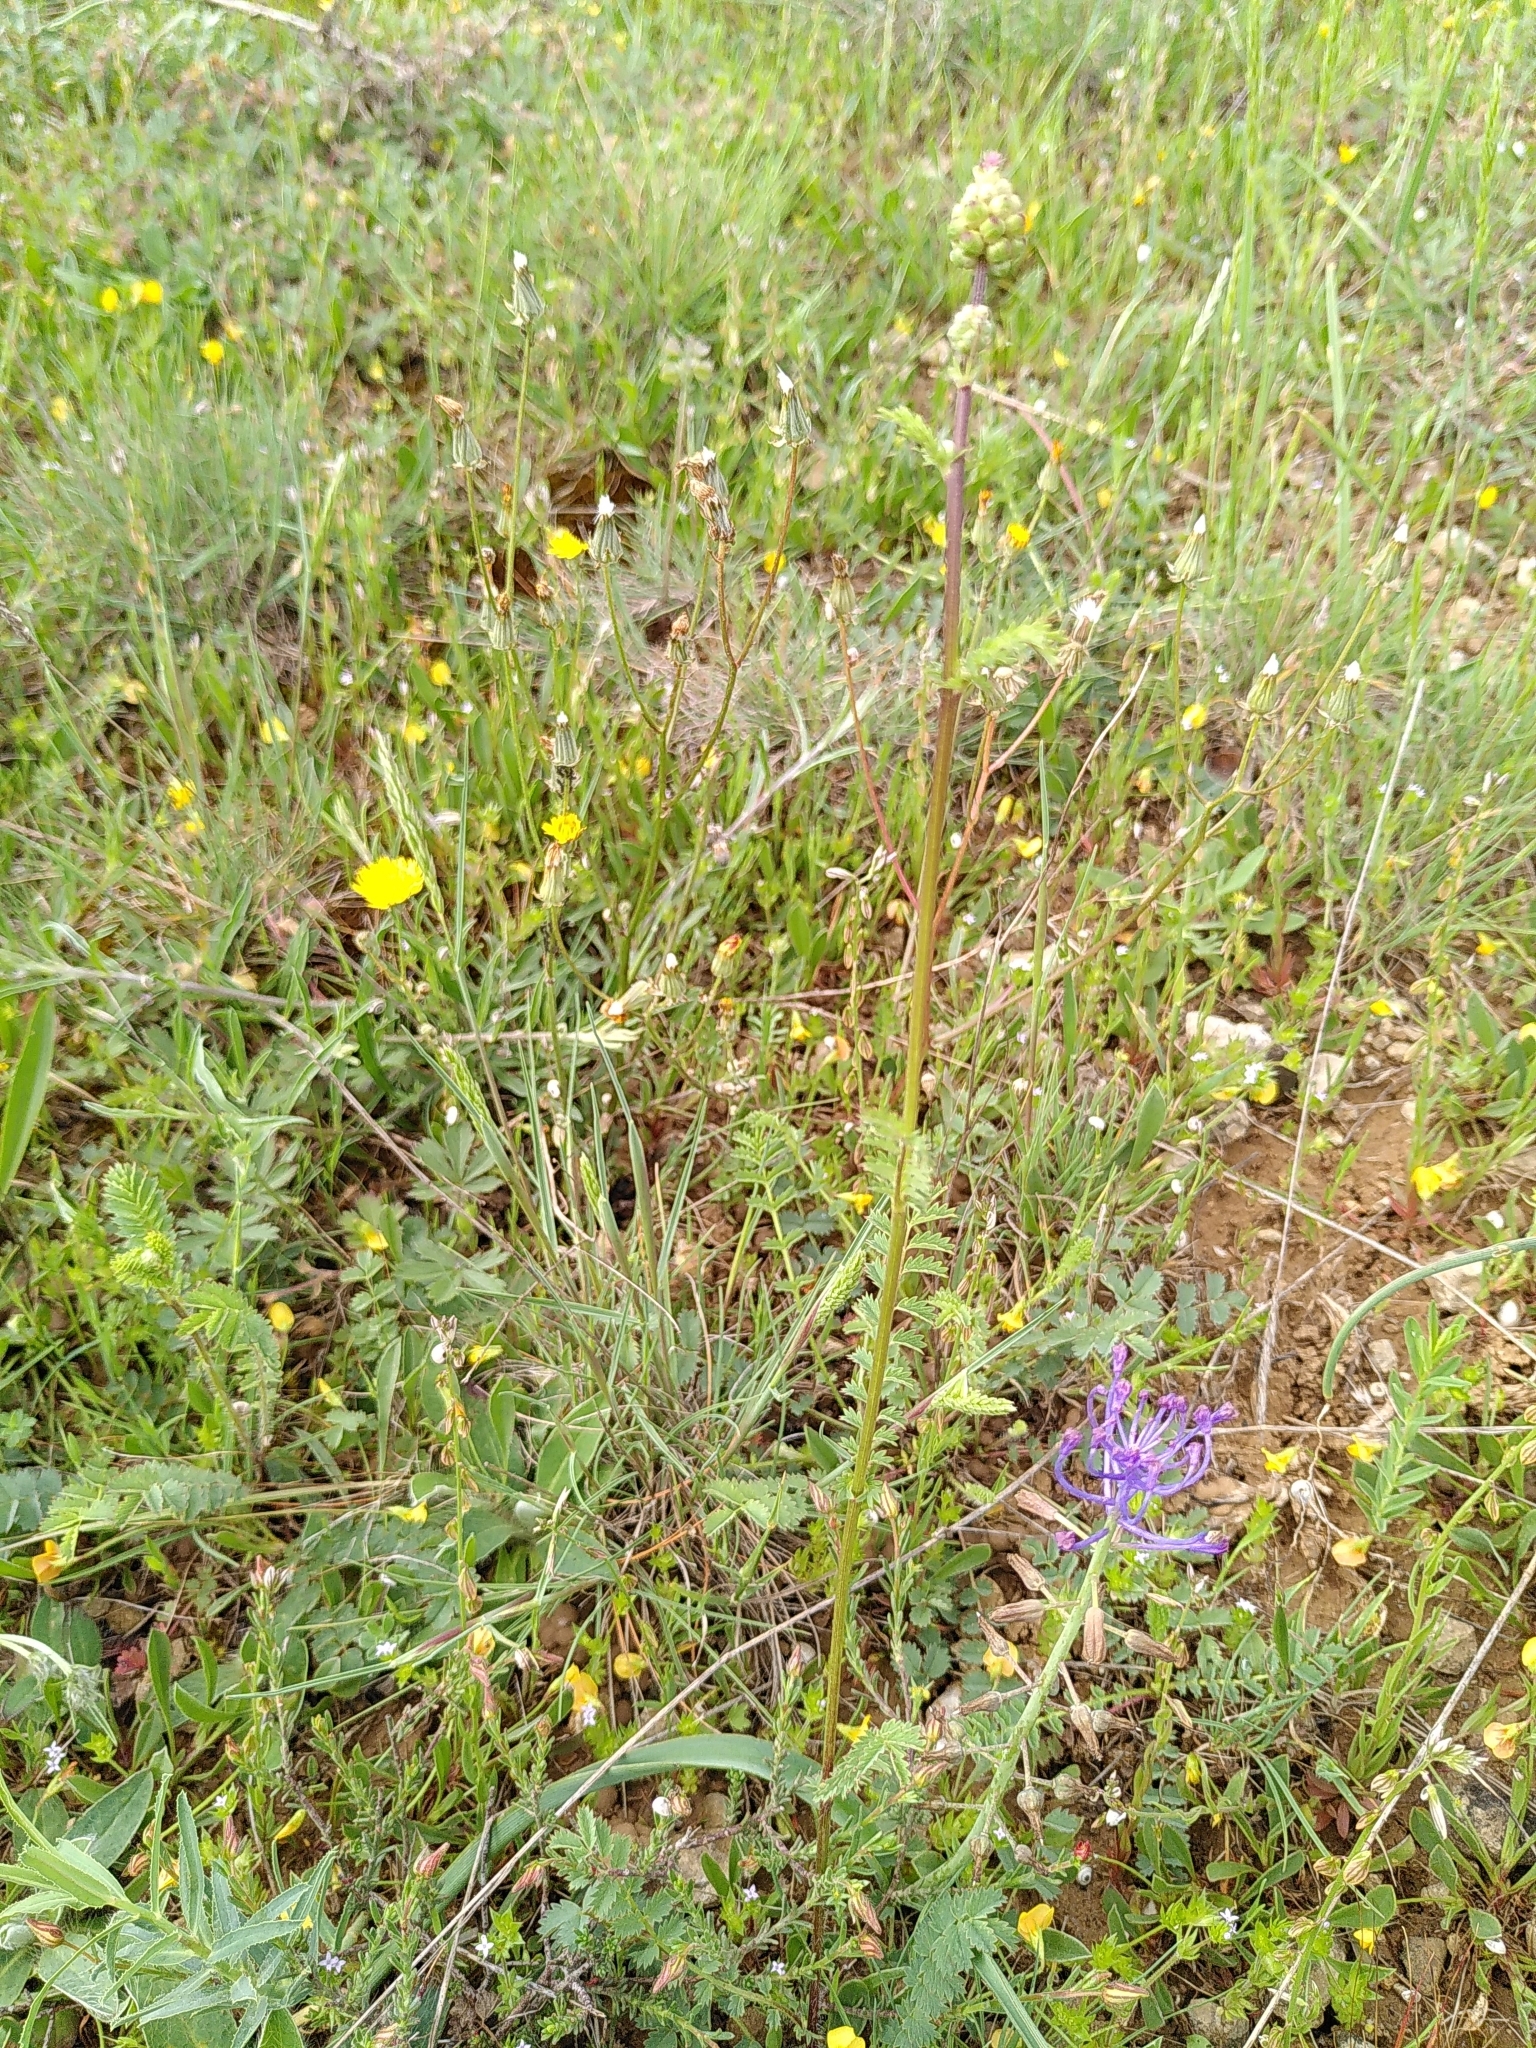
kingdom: Plantae
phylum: Tracheophyta
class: Magnoliopsida
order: Rosales
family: Rosaceae
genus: Poterium
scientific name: Poterium sanguisorba
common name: Salad burnet
